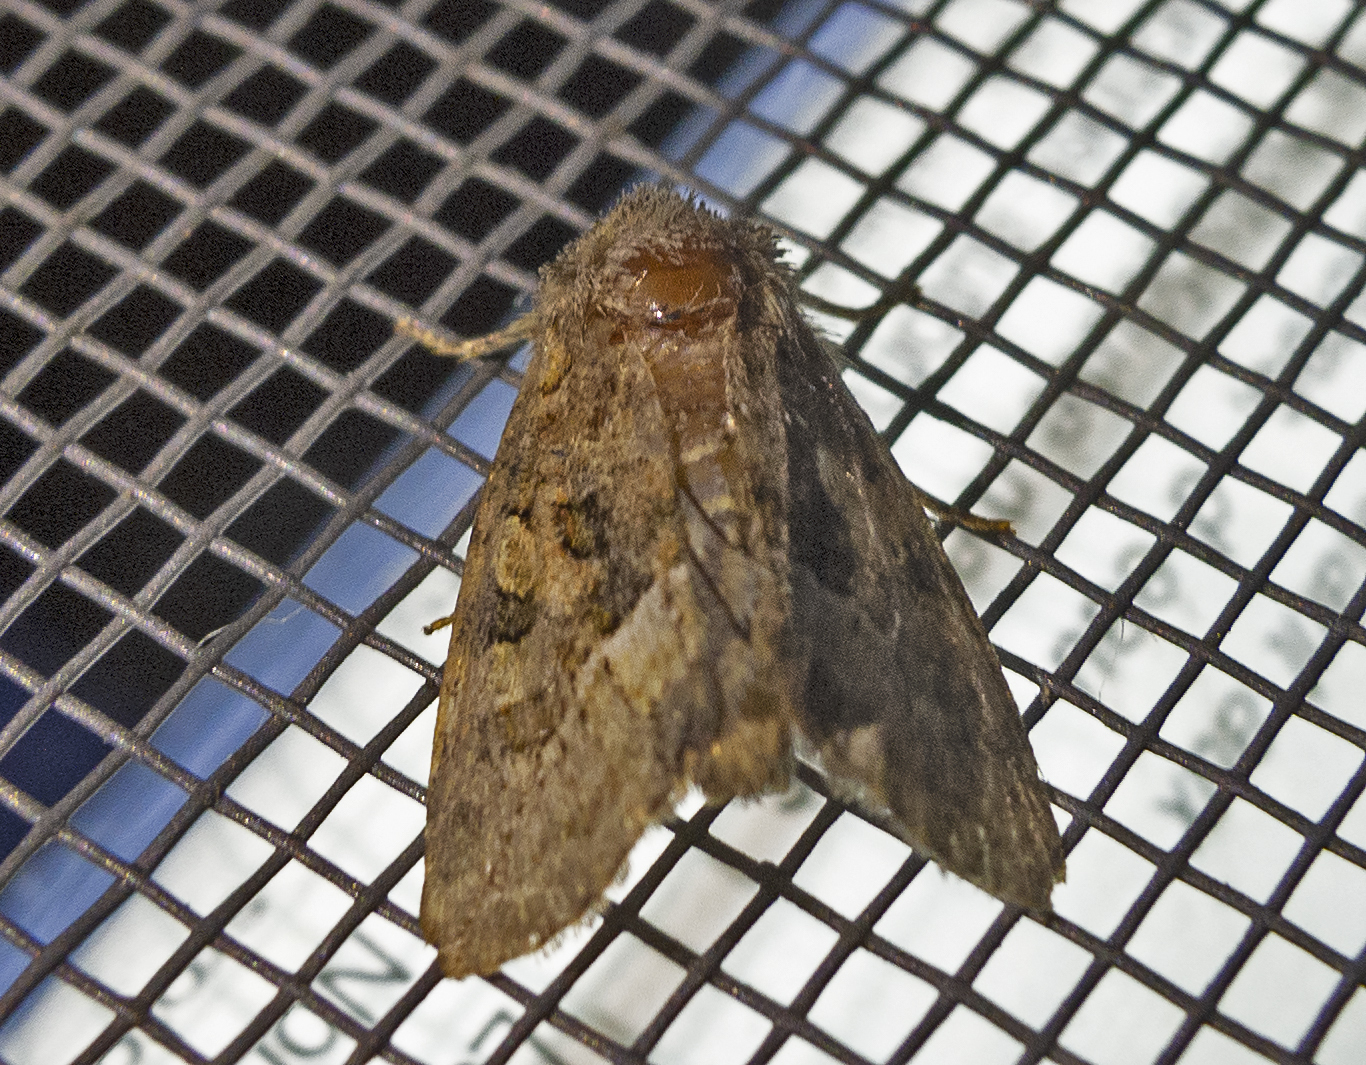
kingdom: Animalia
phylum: Arthropoda
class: Insecta
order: Lepidoptera
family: Noctuidae
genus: Oligia
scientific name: Oligia
